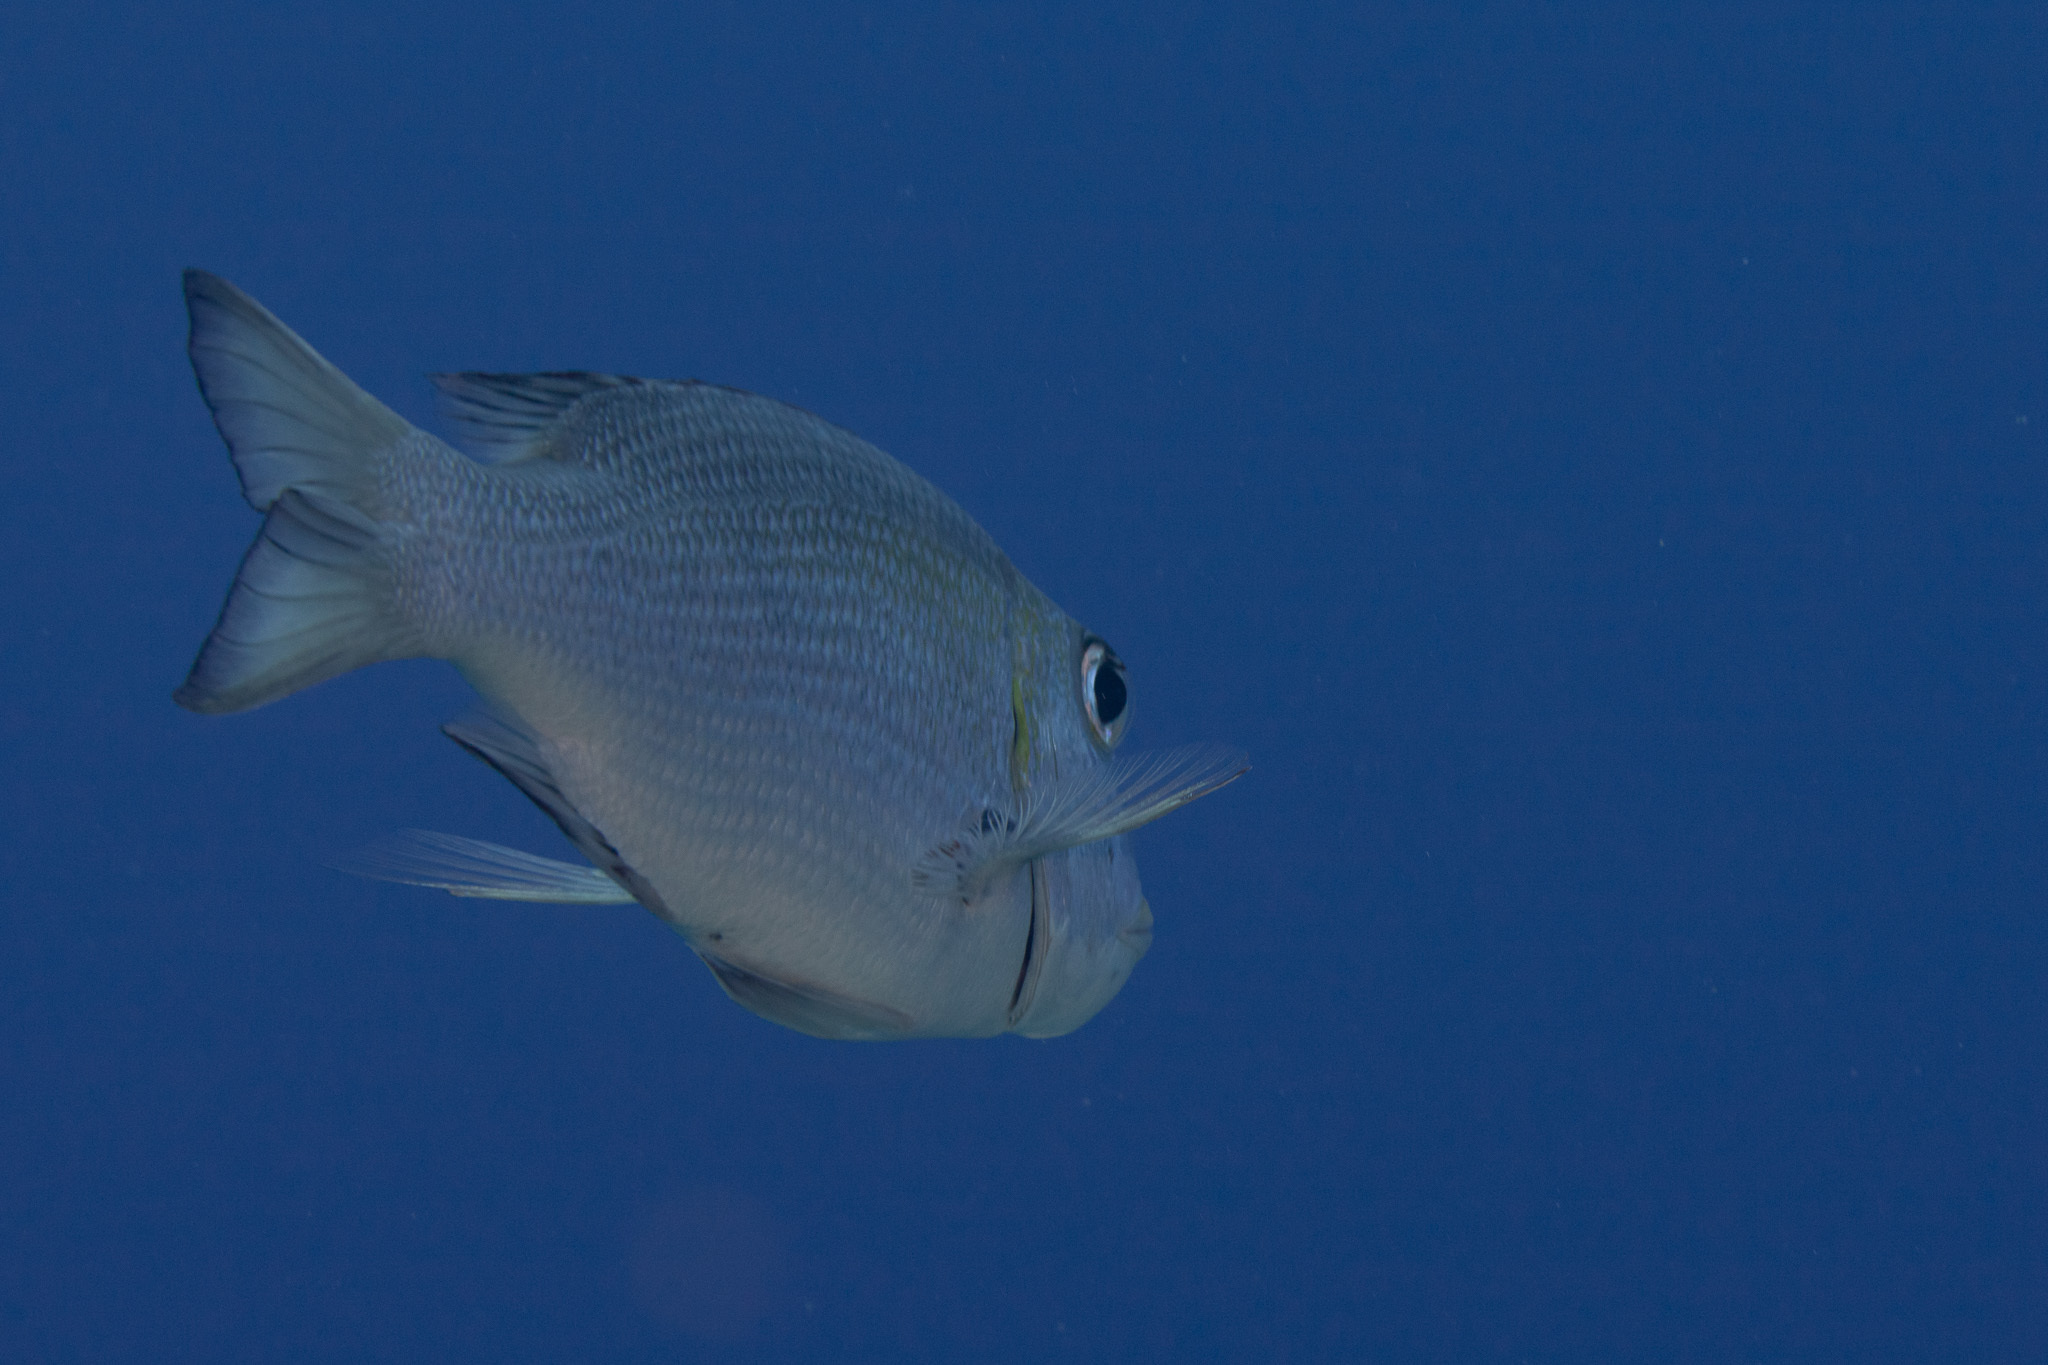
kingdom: Animalia
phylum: Chordata
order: Perciformes
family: Lethrinidae
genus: Monotaxis
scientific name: Monotaxis grandoculis
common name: Bigeye emperor
